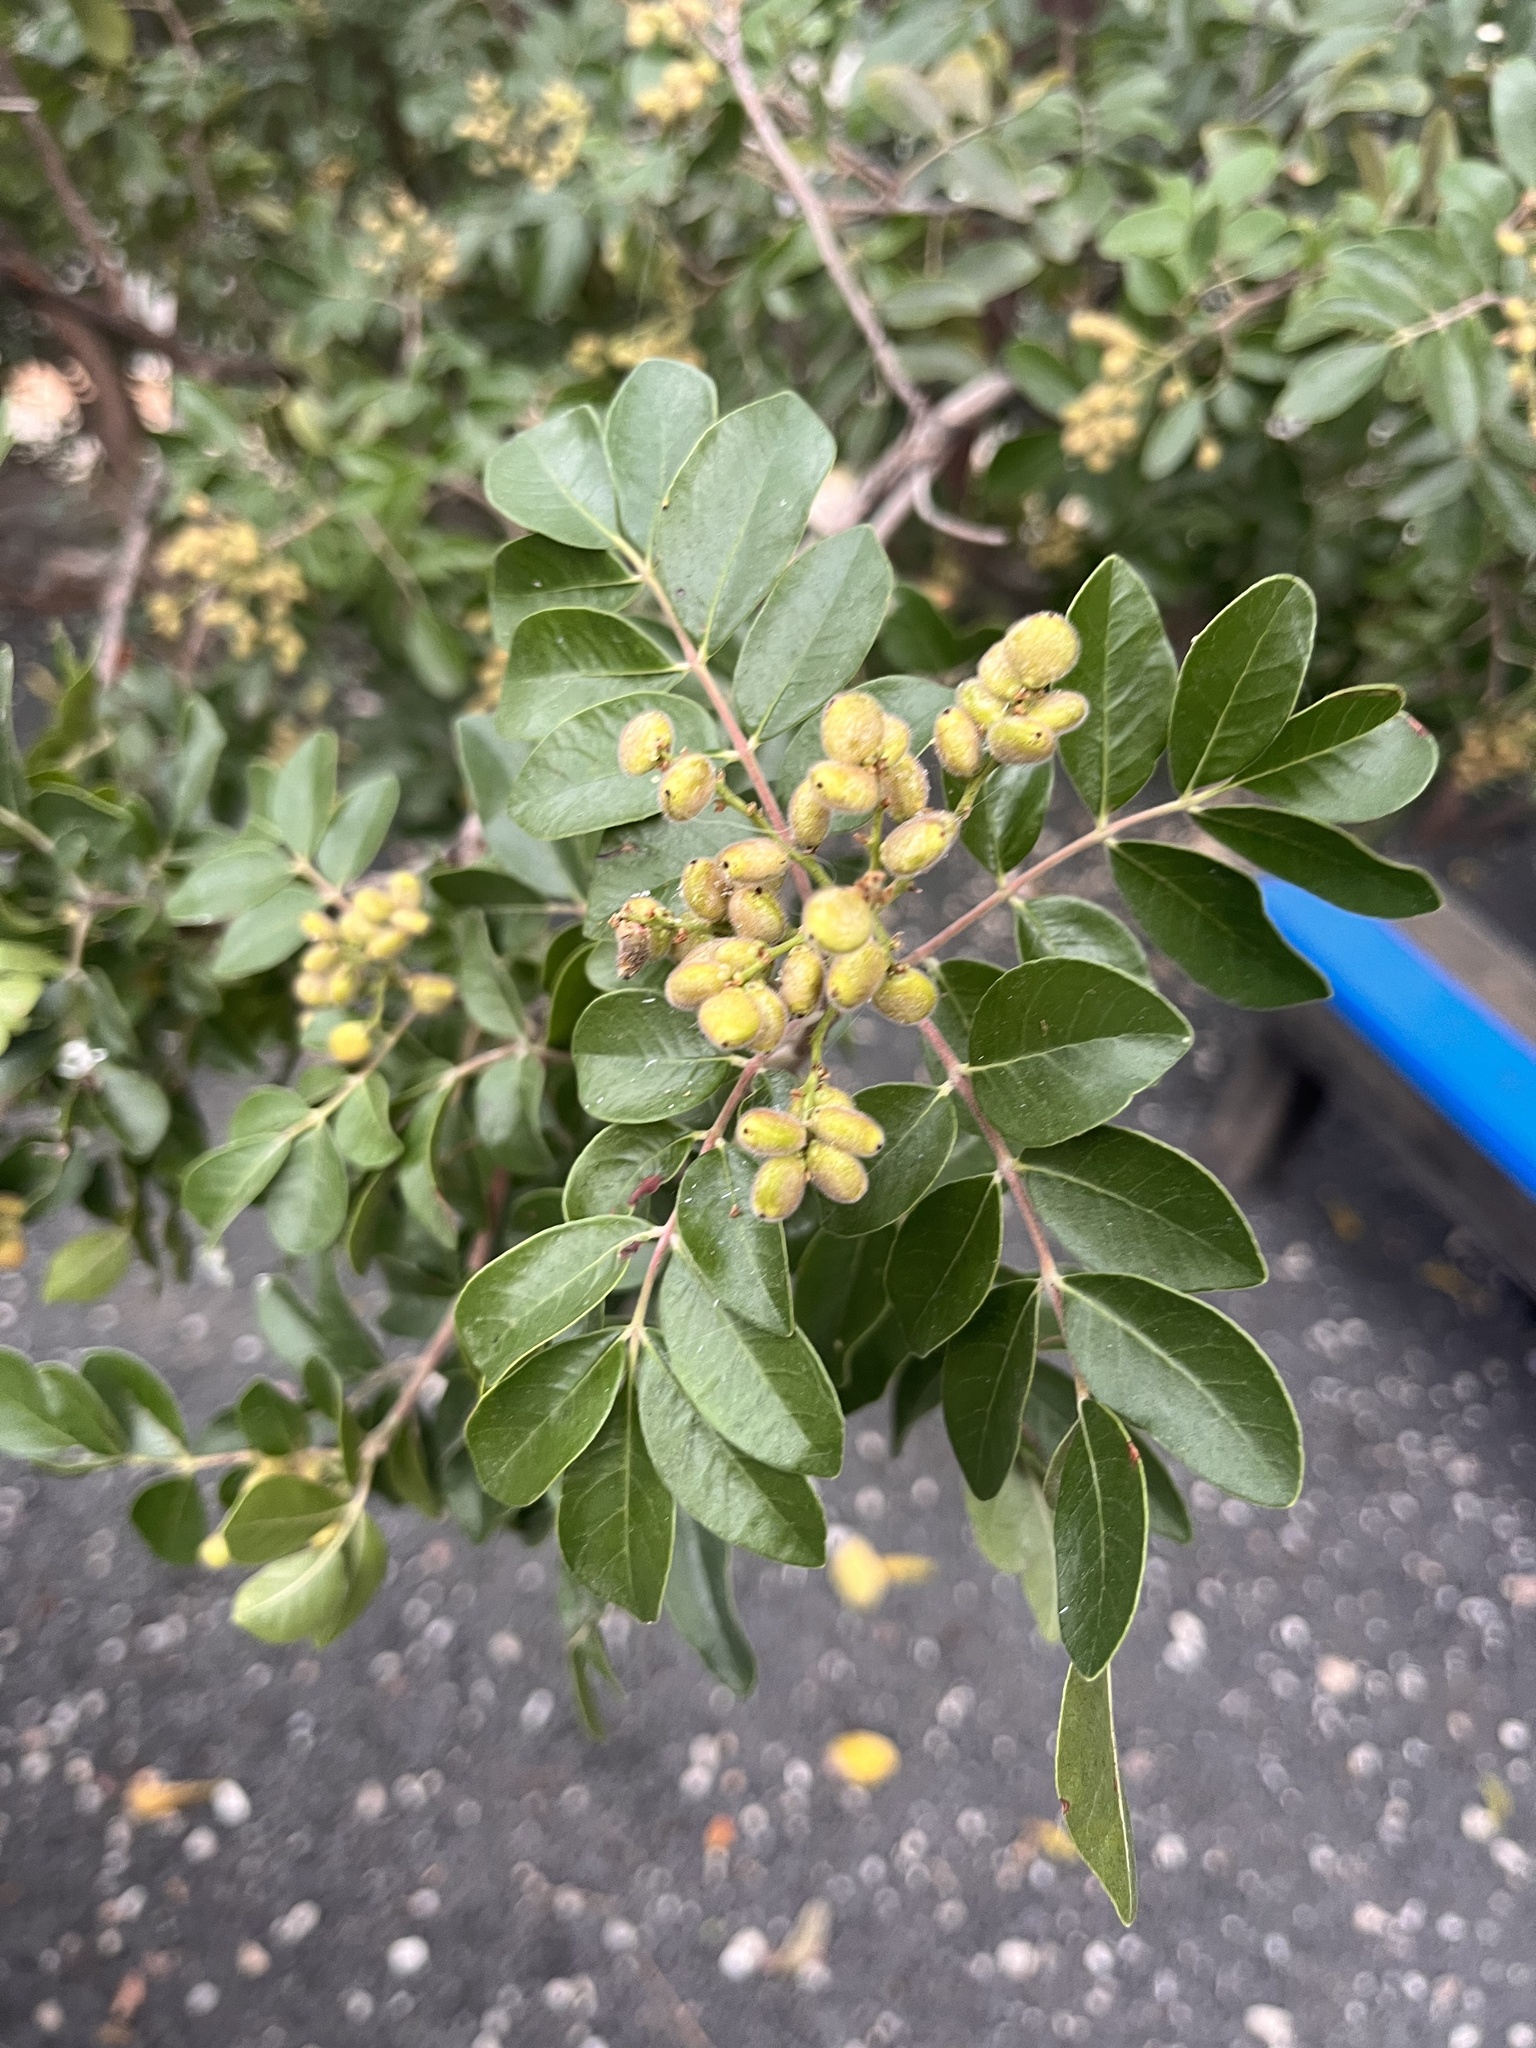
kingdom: Plantae
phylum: Tracheophyta
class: Magnoliopsida
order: Sapindales
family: Anacardiaceae
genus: Rhus
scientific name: Rhus virens
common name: Evergreen sumac
